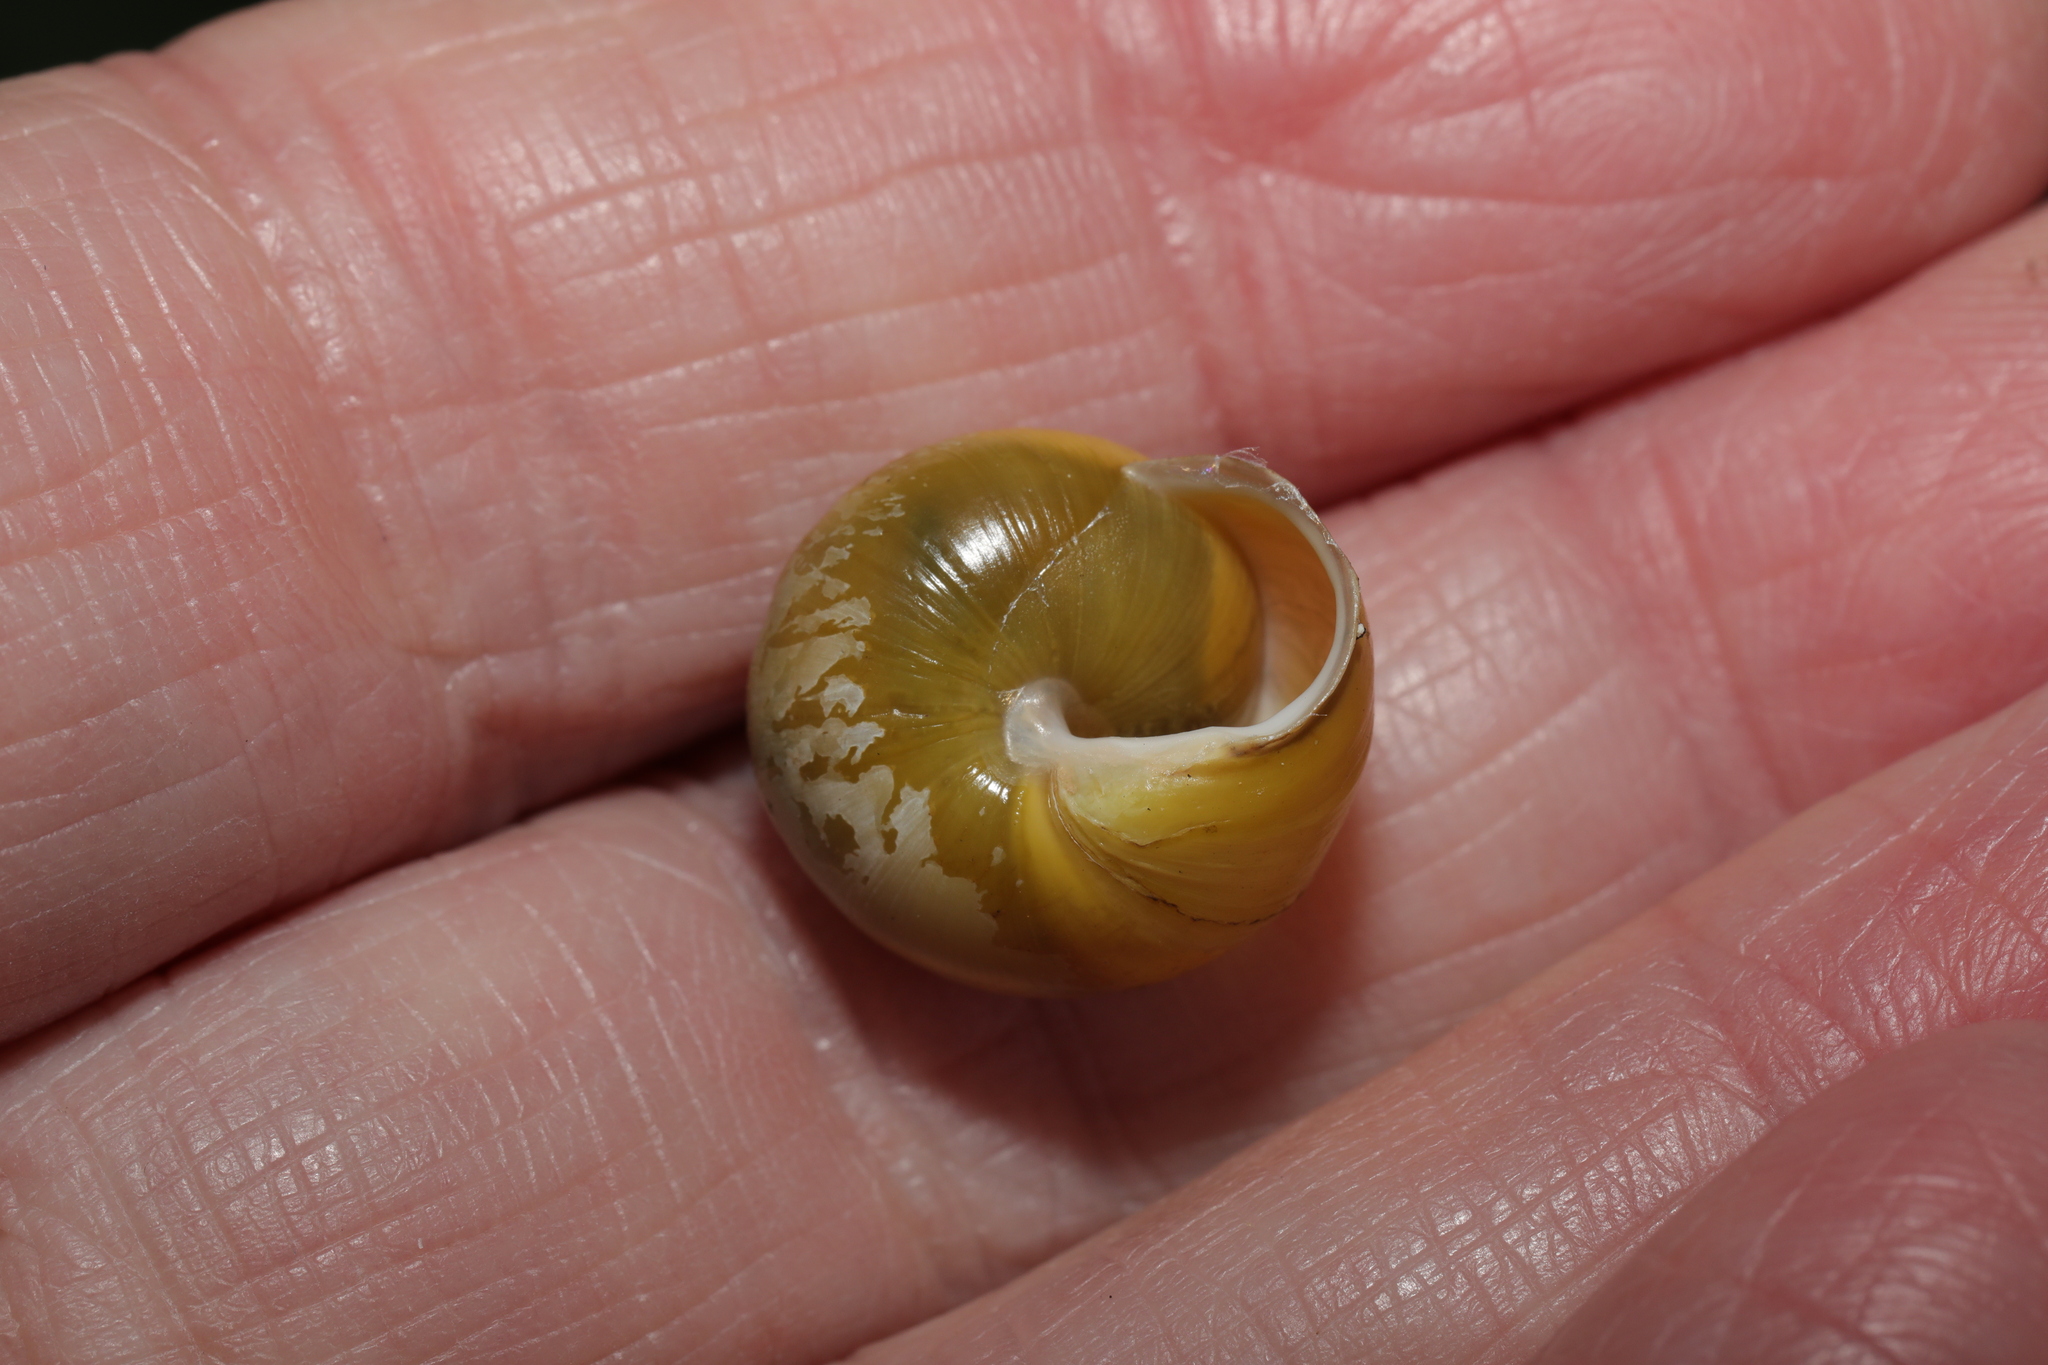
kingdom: Animalia
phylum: Mollusca
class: Gastropoda
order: Stylommatophora
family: Helicidae
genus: Cepaea
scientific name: Cepaea hortensis
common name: White-lip gardensnail
